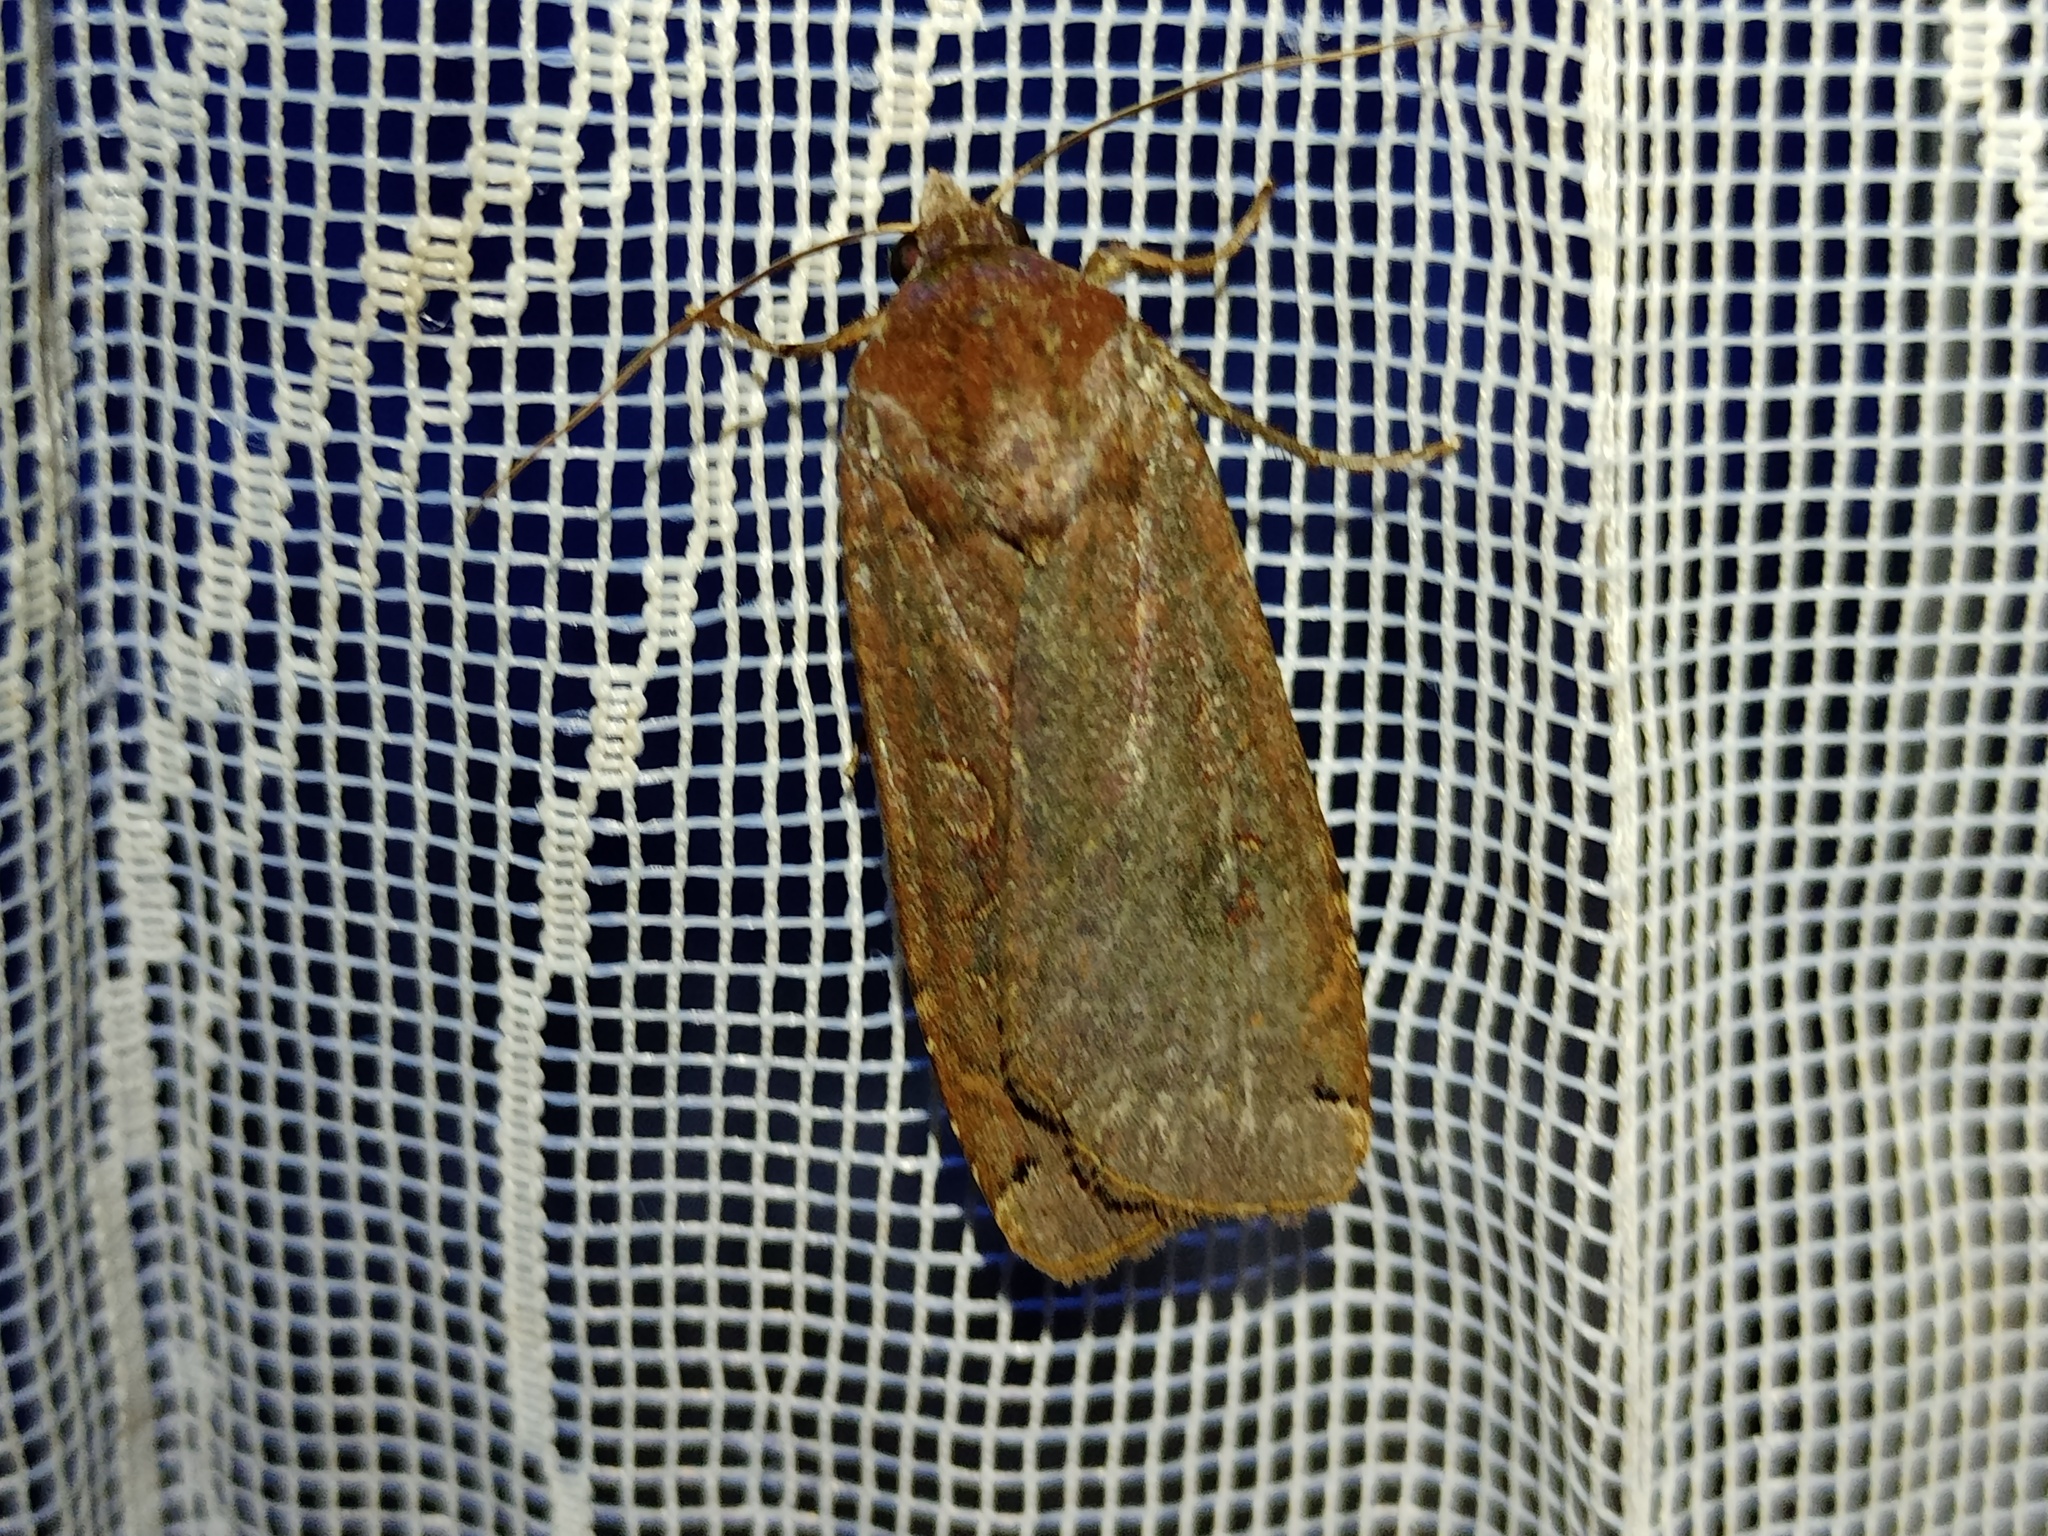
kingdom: Animalia
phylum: Arthropoda
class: Insecta
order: Lepidoptera
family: Noctuidae
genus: Noctua
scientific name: Noctua pronuba
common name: Large yellow underwing
